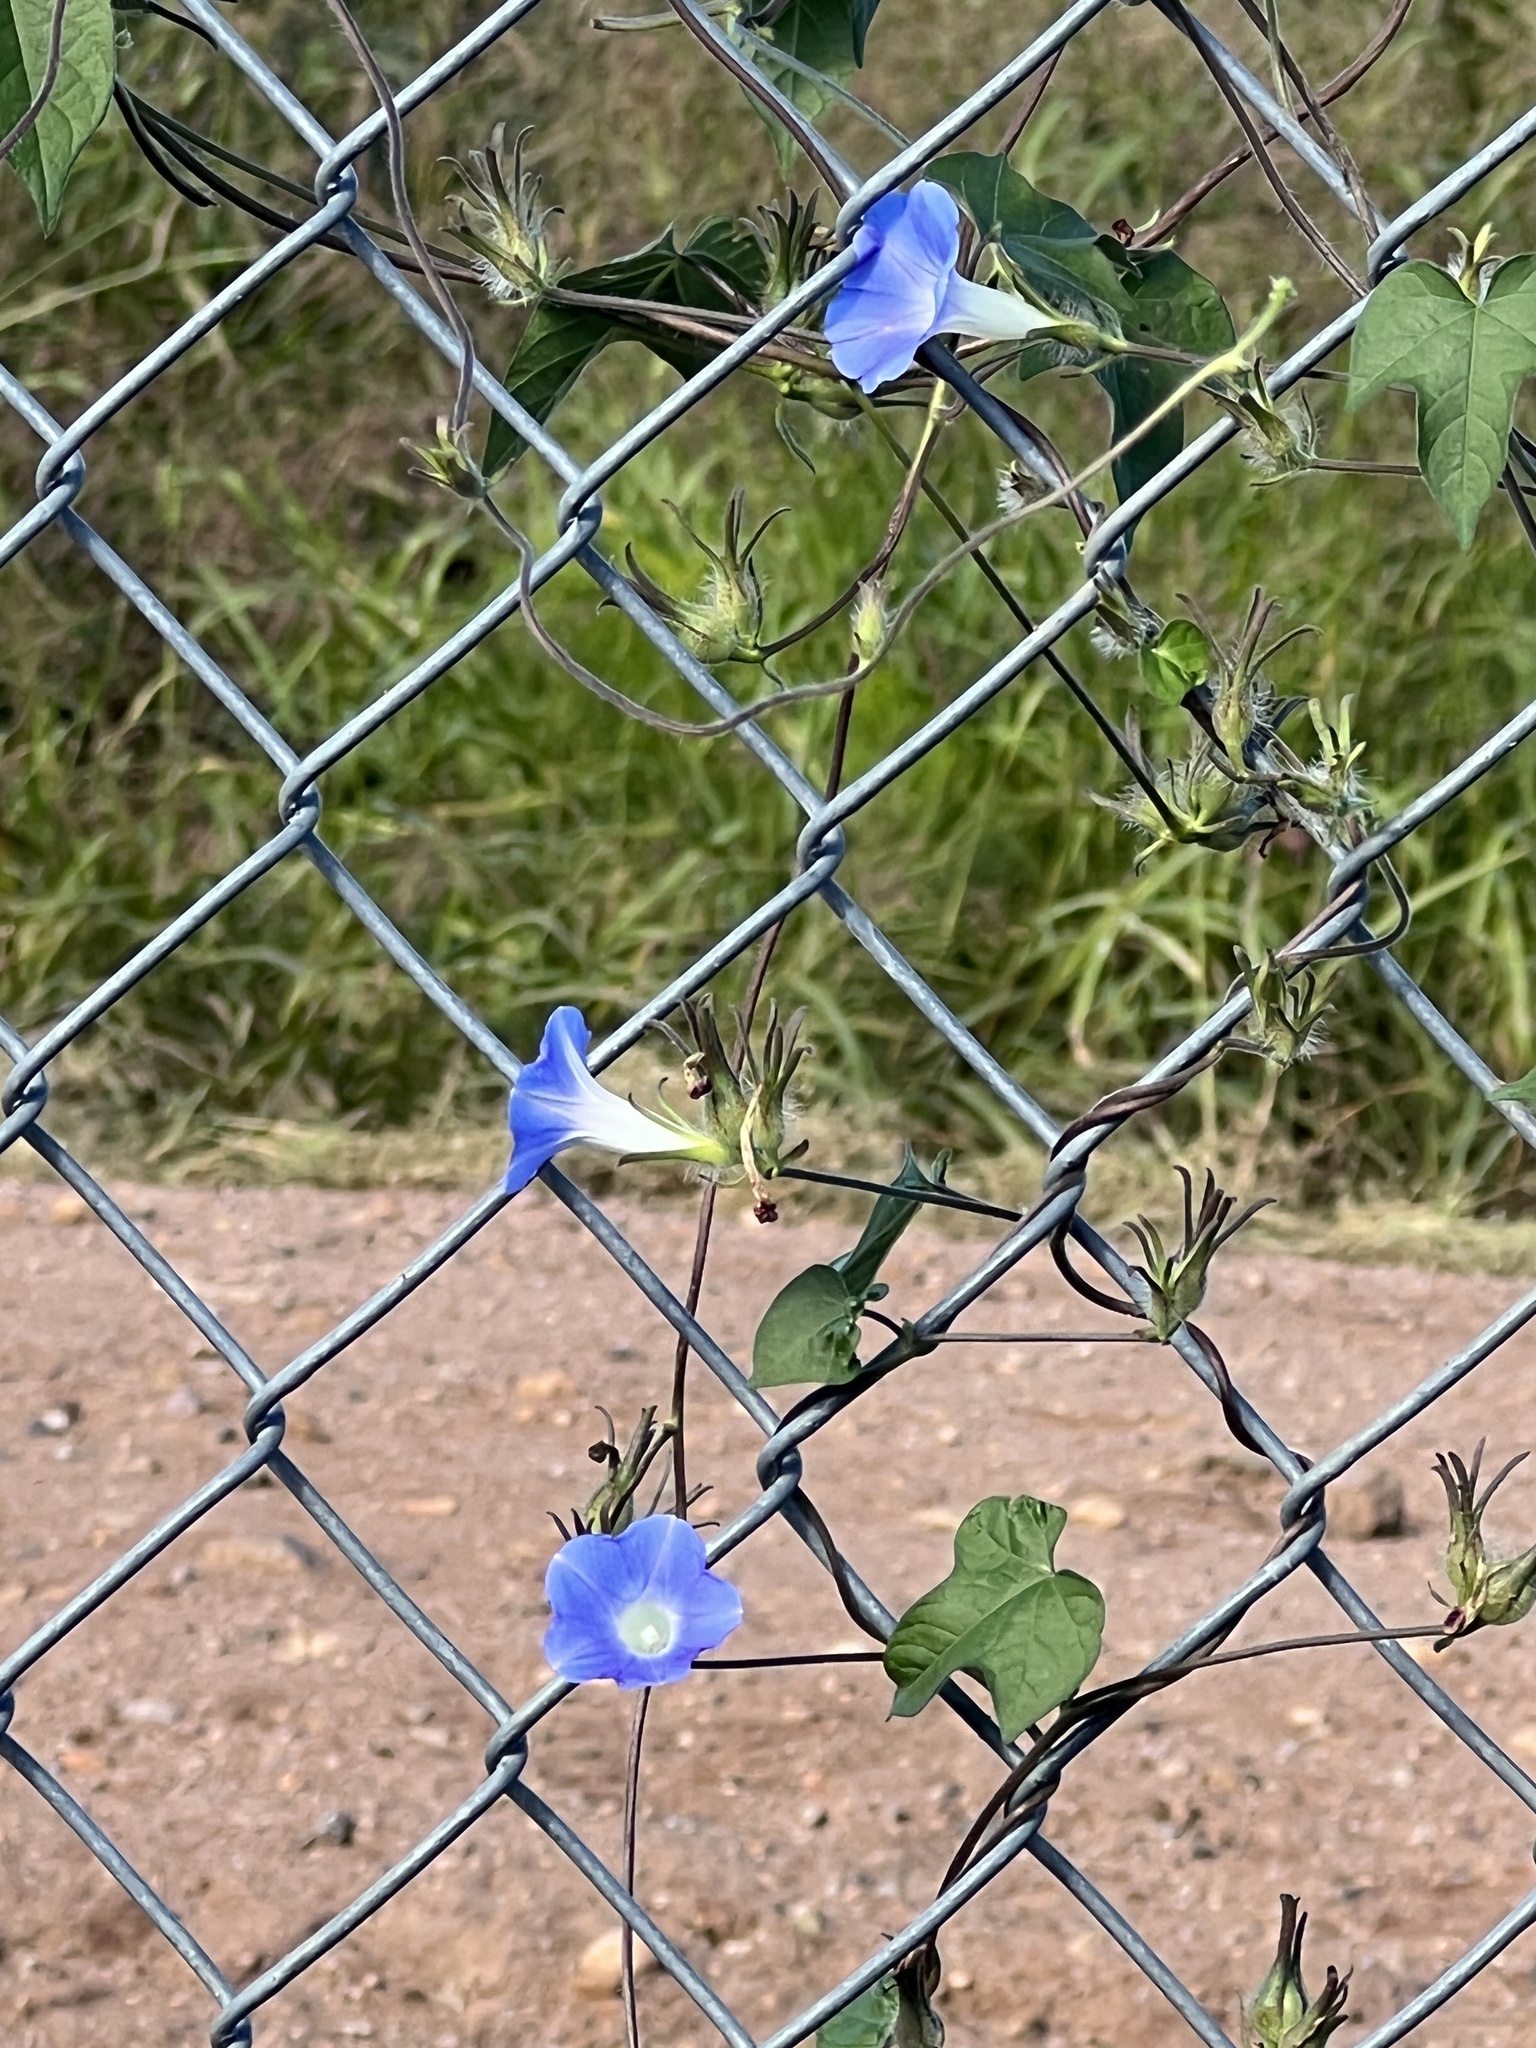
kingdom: Plantae
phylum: Tracheophyta
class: Magnoliopsida
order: Solanales
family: Convolvulaceae
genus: Ipomoea
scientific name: Ipomoea hederacea
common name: Ivy-leaved morning-glory
